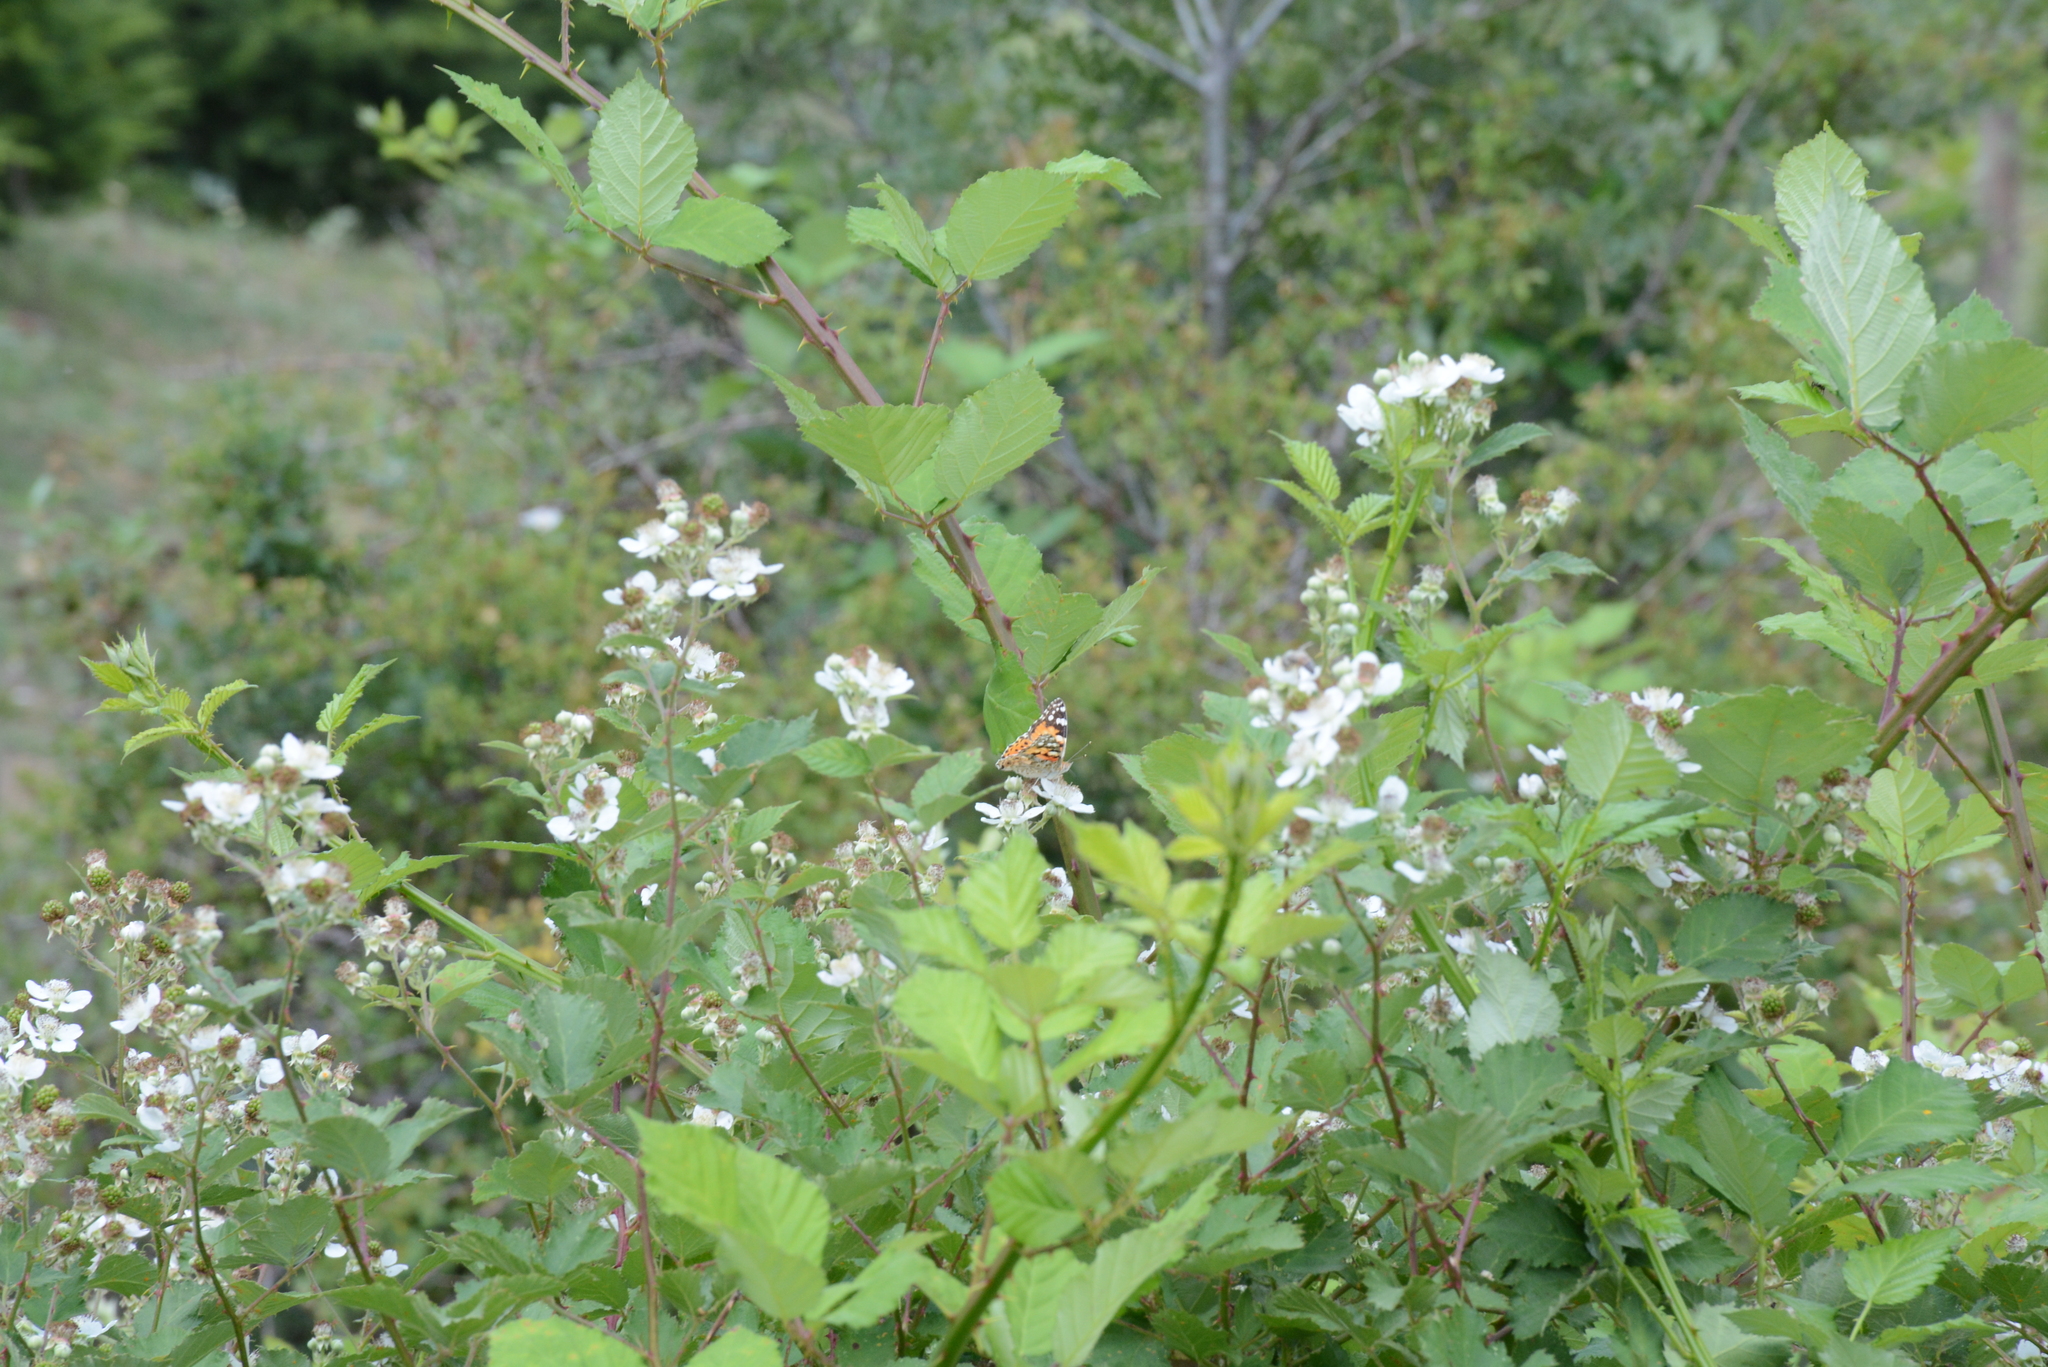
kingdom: Animalia
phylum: Arthropoda
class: Insecta
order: Lepidoptera
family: Nymphalidae
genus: Vanessa
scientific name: Vanessa cardui
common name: Painted lady
